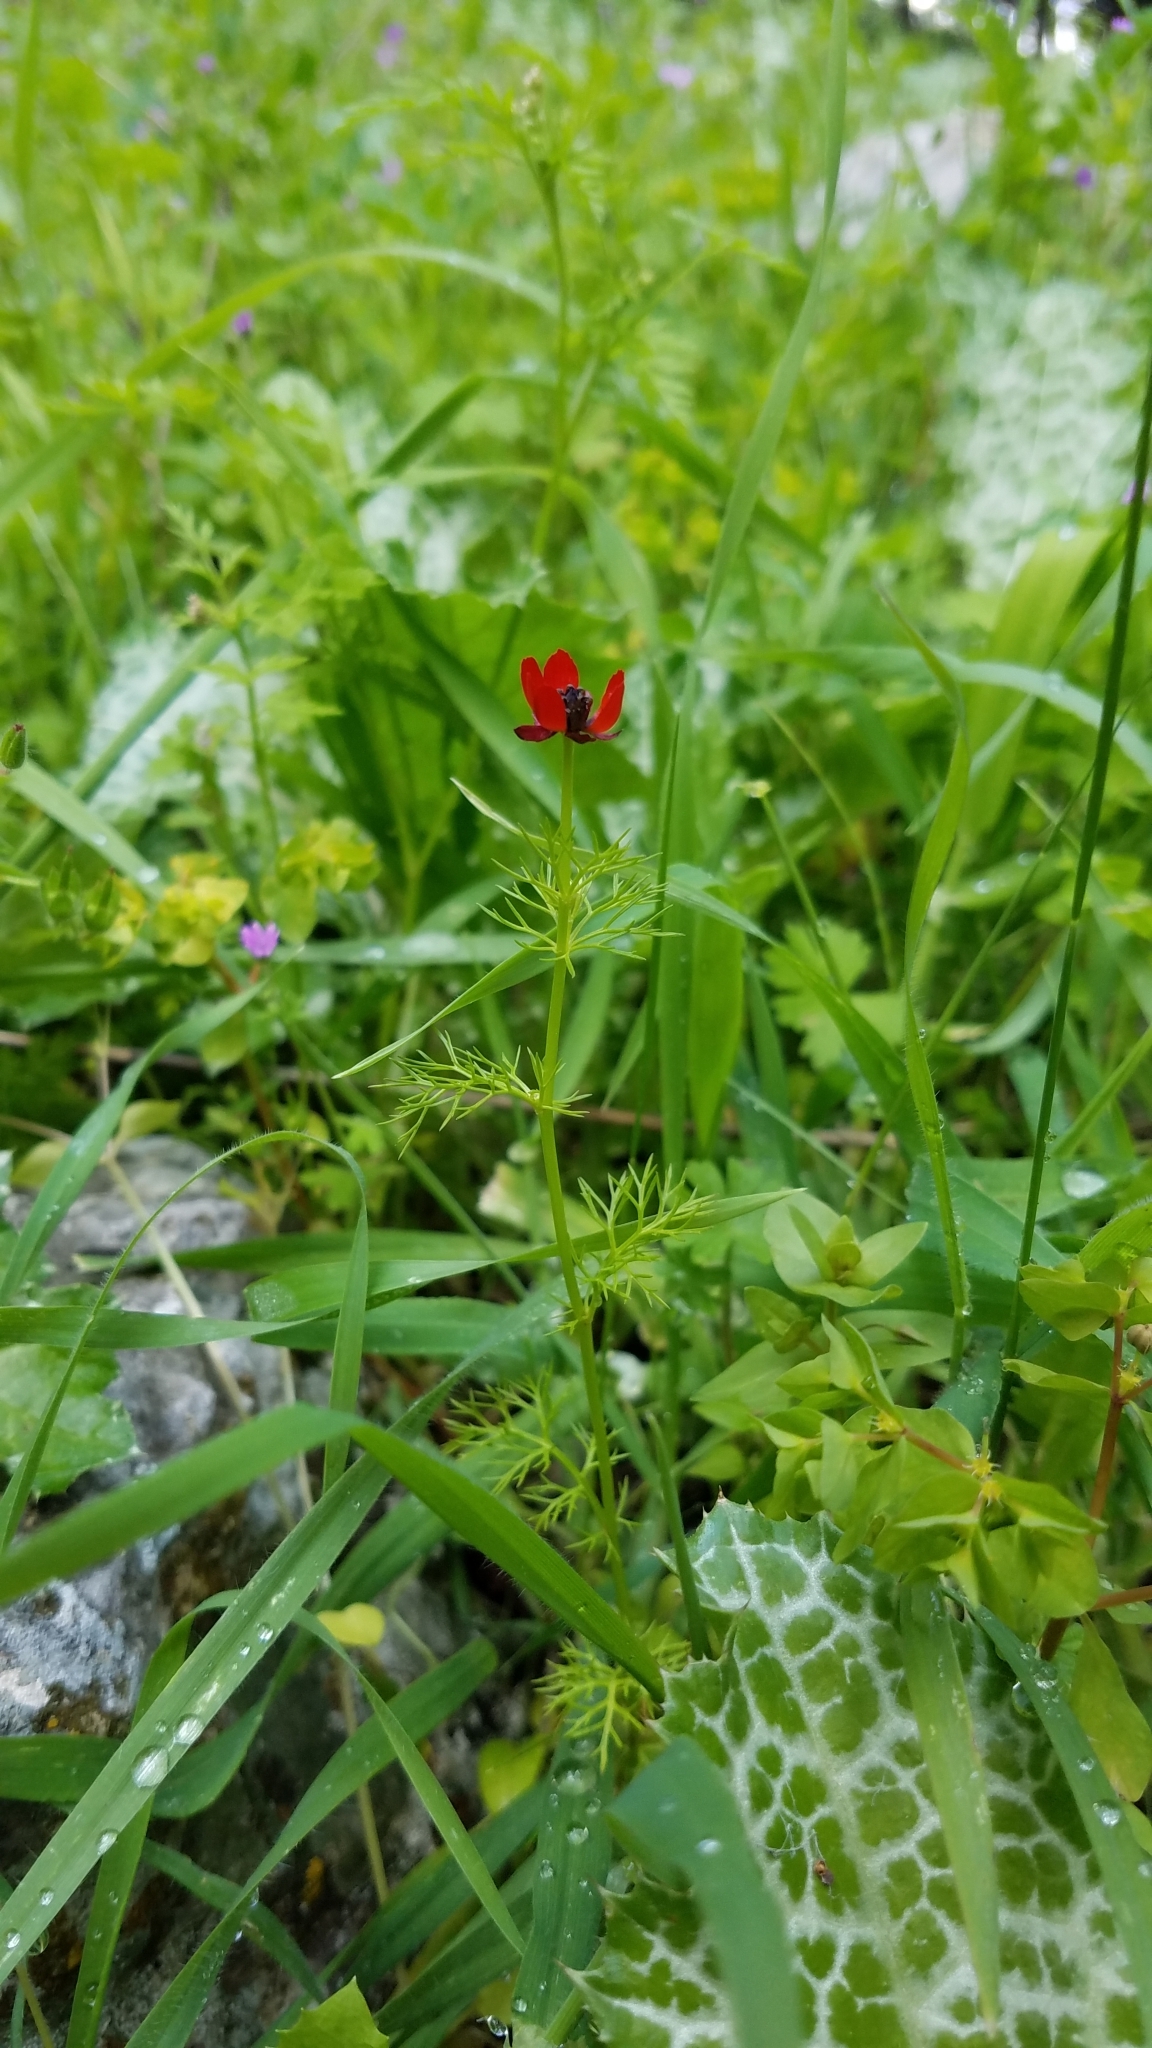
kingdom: Plantae
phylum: Tracheophyta
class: Magnoliopsida
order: Ranunculales
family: Ranunculaceae
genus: Adonis
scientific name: Adonis microcarpa
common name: Pheasant's-eye
